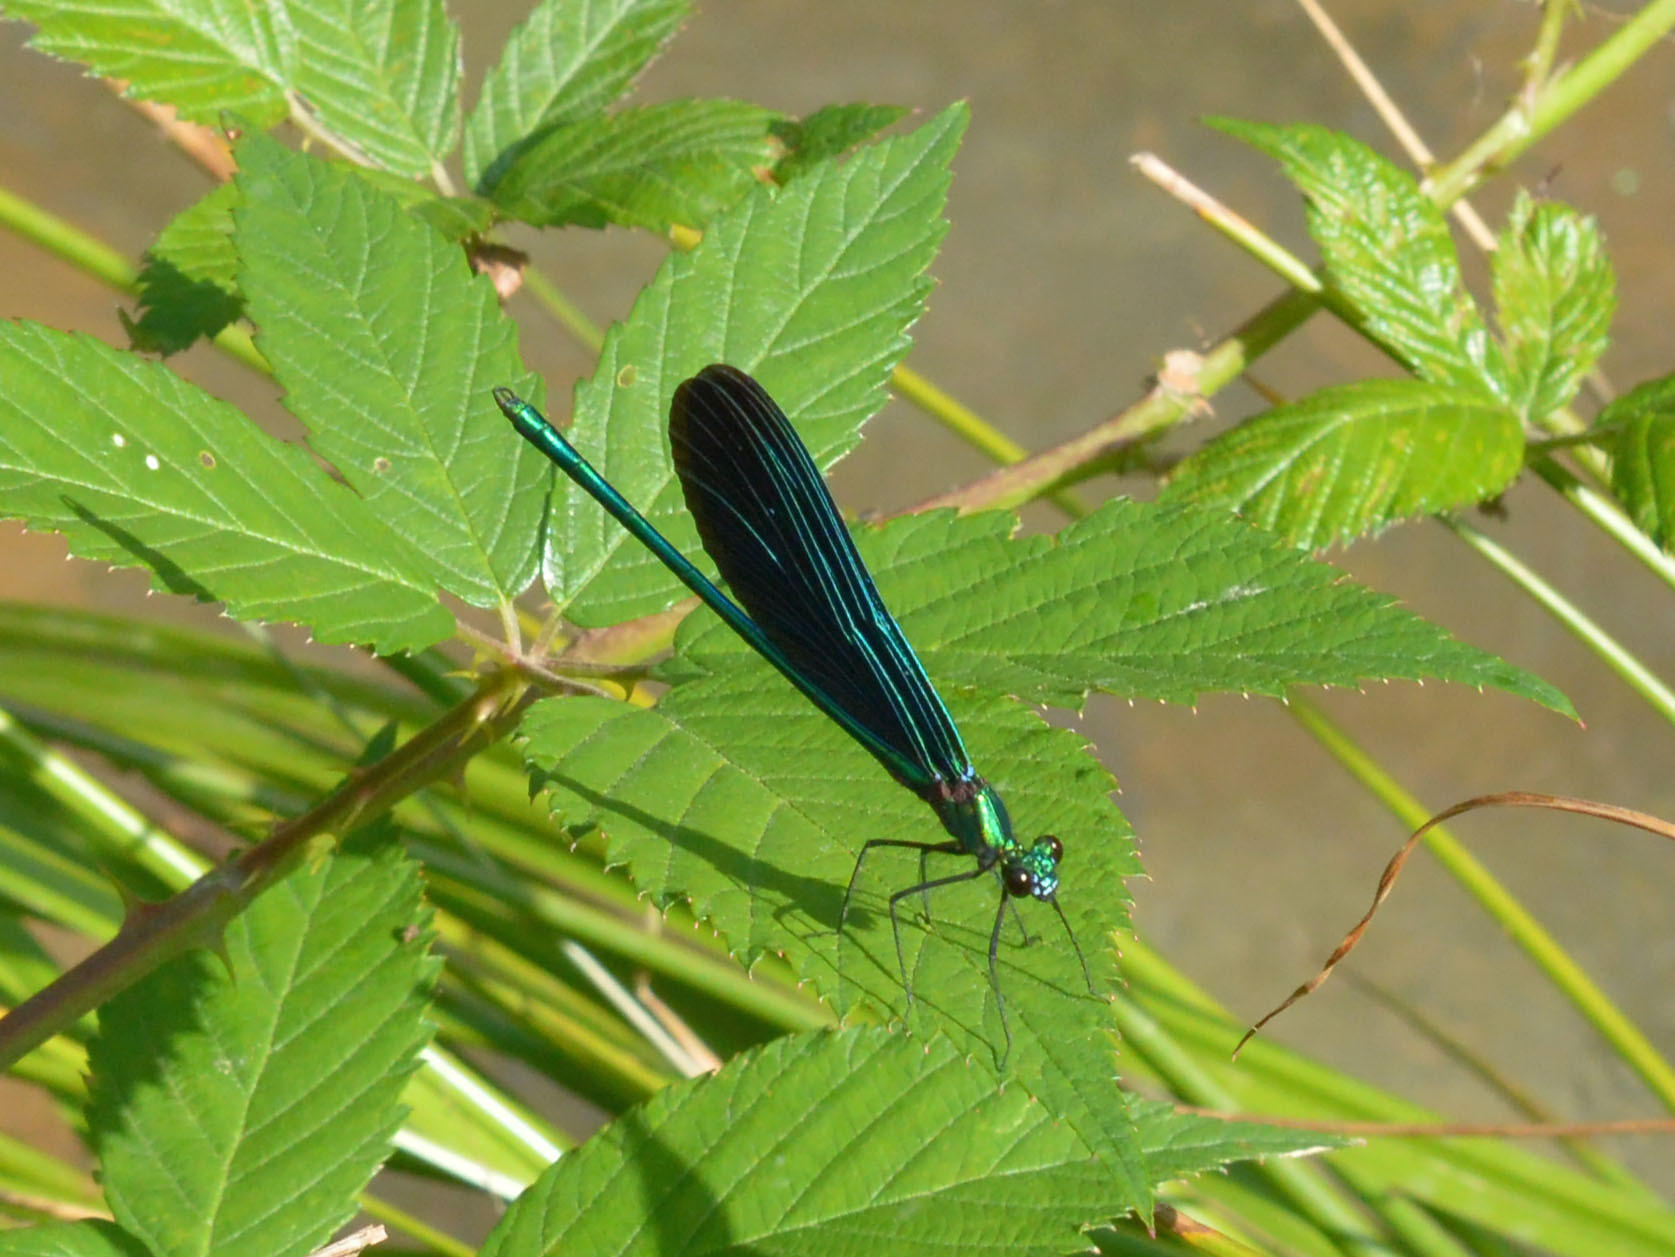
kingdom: Animalia
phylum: Arthropoda
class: Insecta
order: Odonata
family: Calopterygidae
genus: Calopteryx
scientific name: Calopteryx virgo
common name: Beautiful demoiselle
